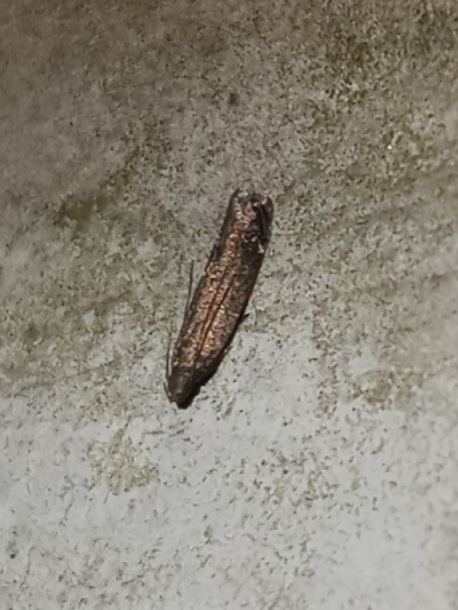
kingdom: Animalia
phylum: Arthropoda
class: Insecta
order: Lepidoptera
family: Gelechiidae
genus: Untomia
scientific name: Untomia albistrigella
